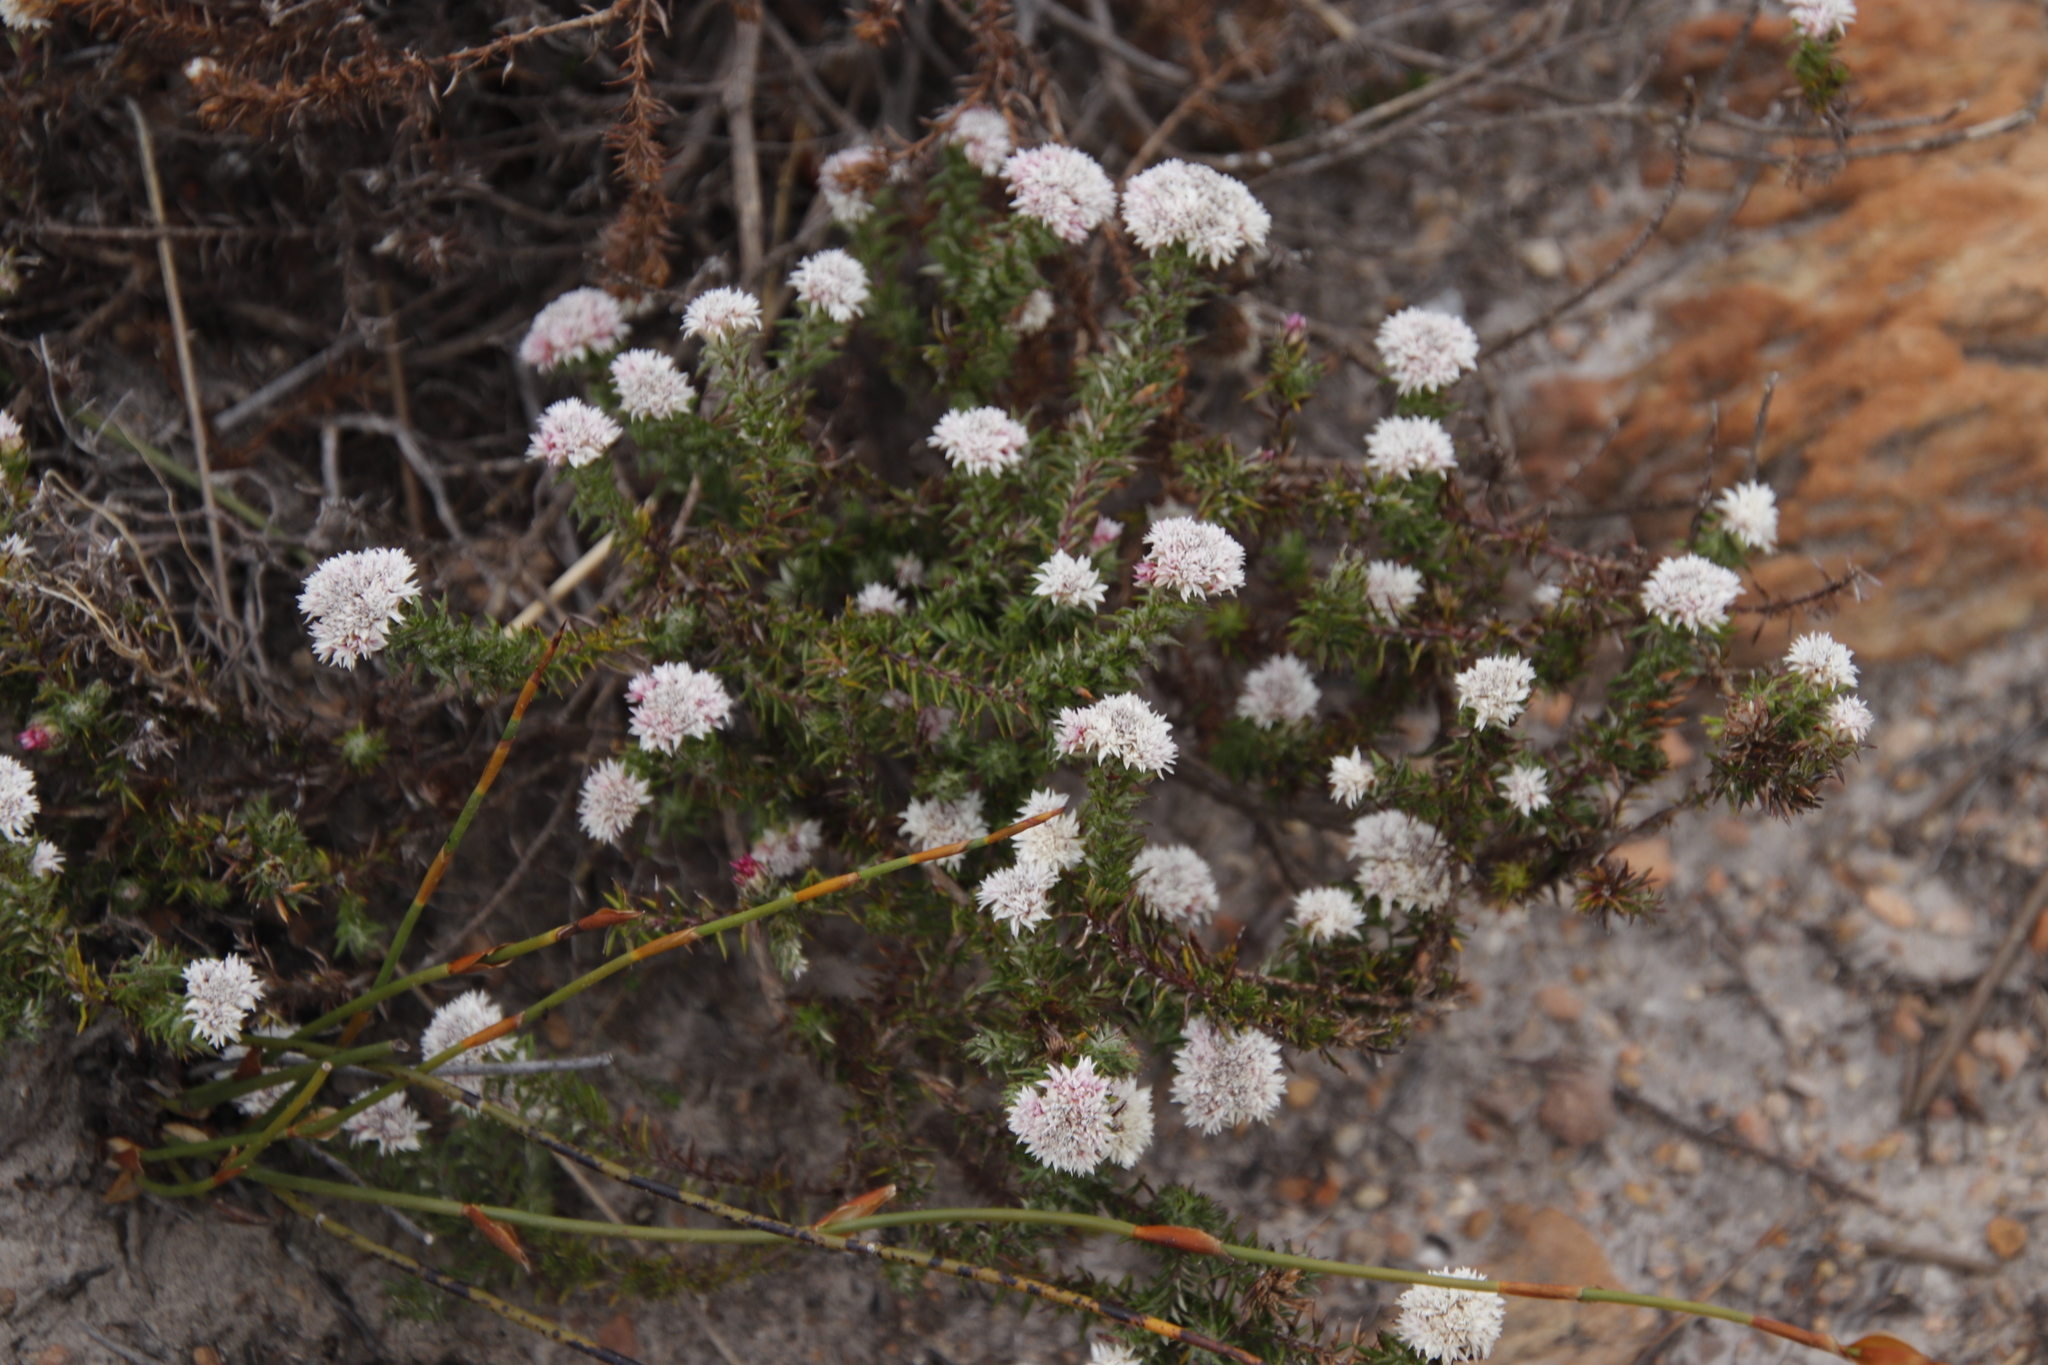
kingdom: Plantae
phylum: Tracheophyta
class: Magnoliopsida
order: Asterales
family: Asteraceae
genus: Metalasia
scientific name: Metalasia inversa
